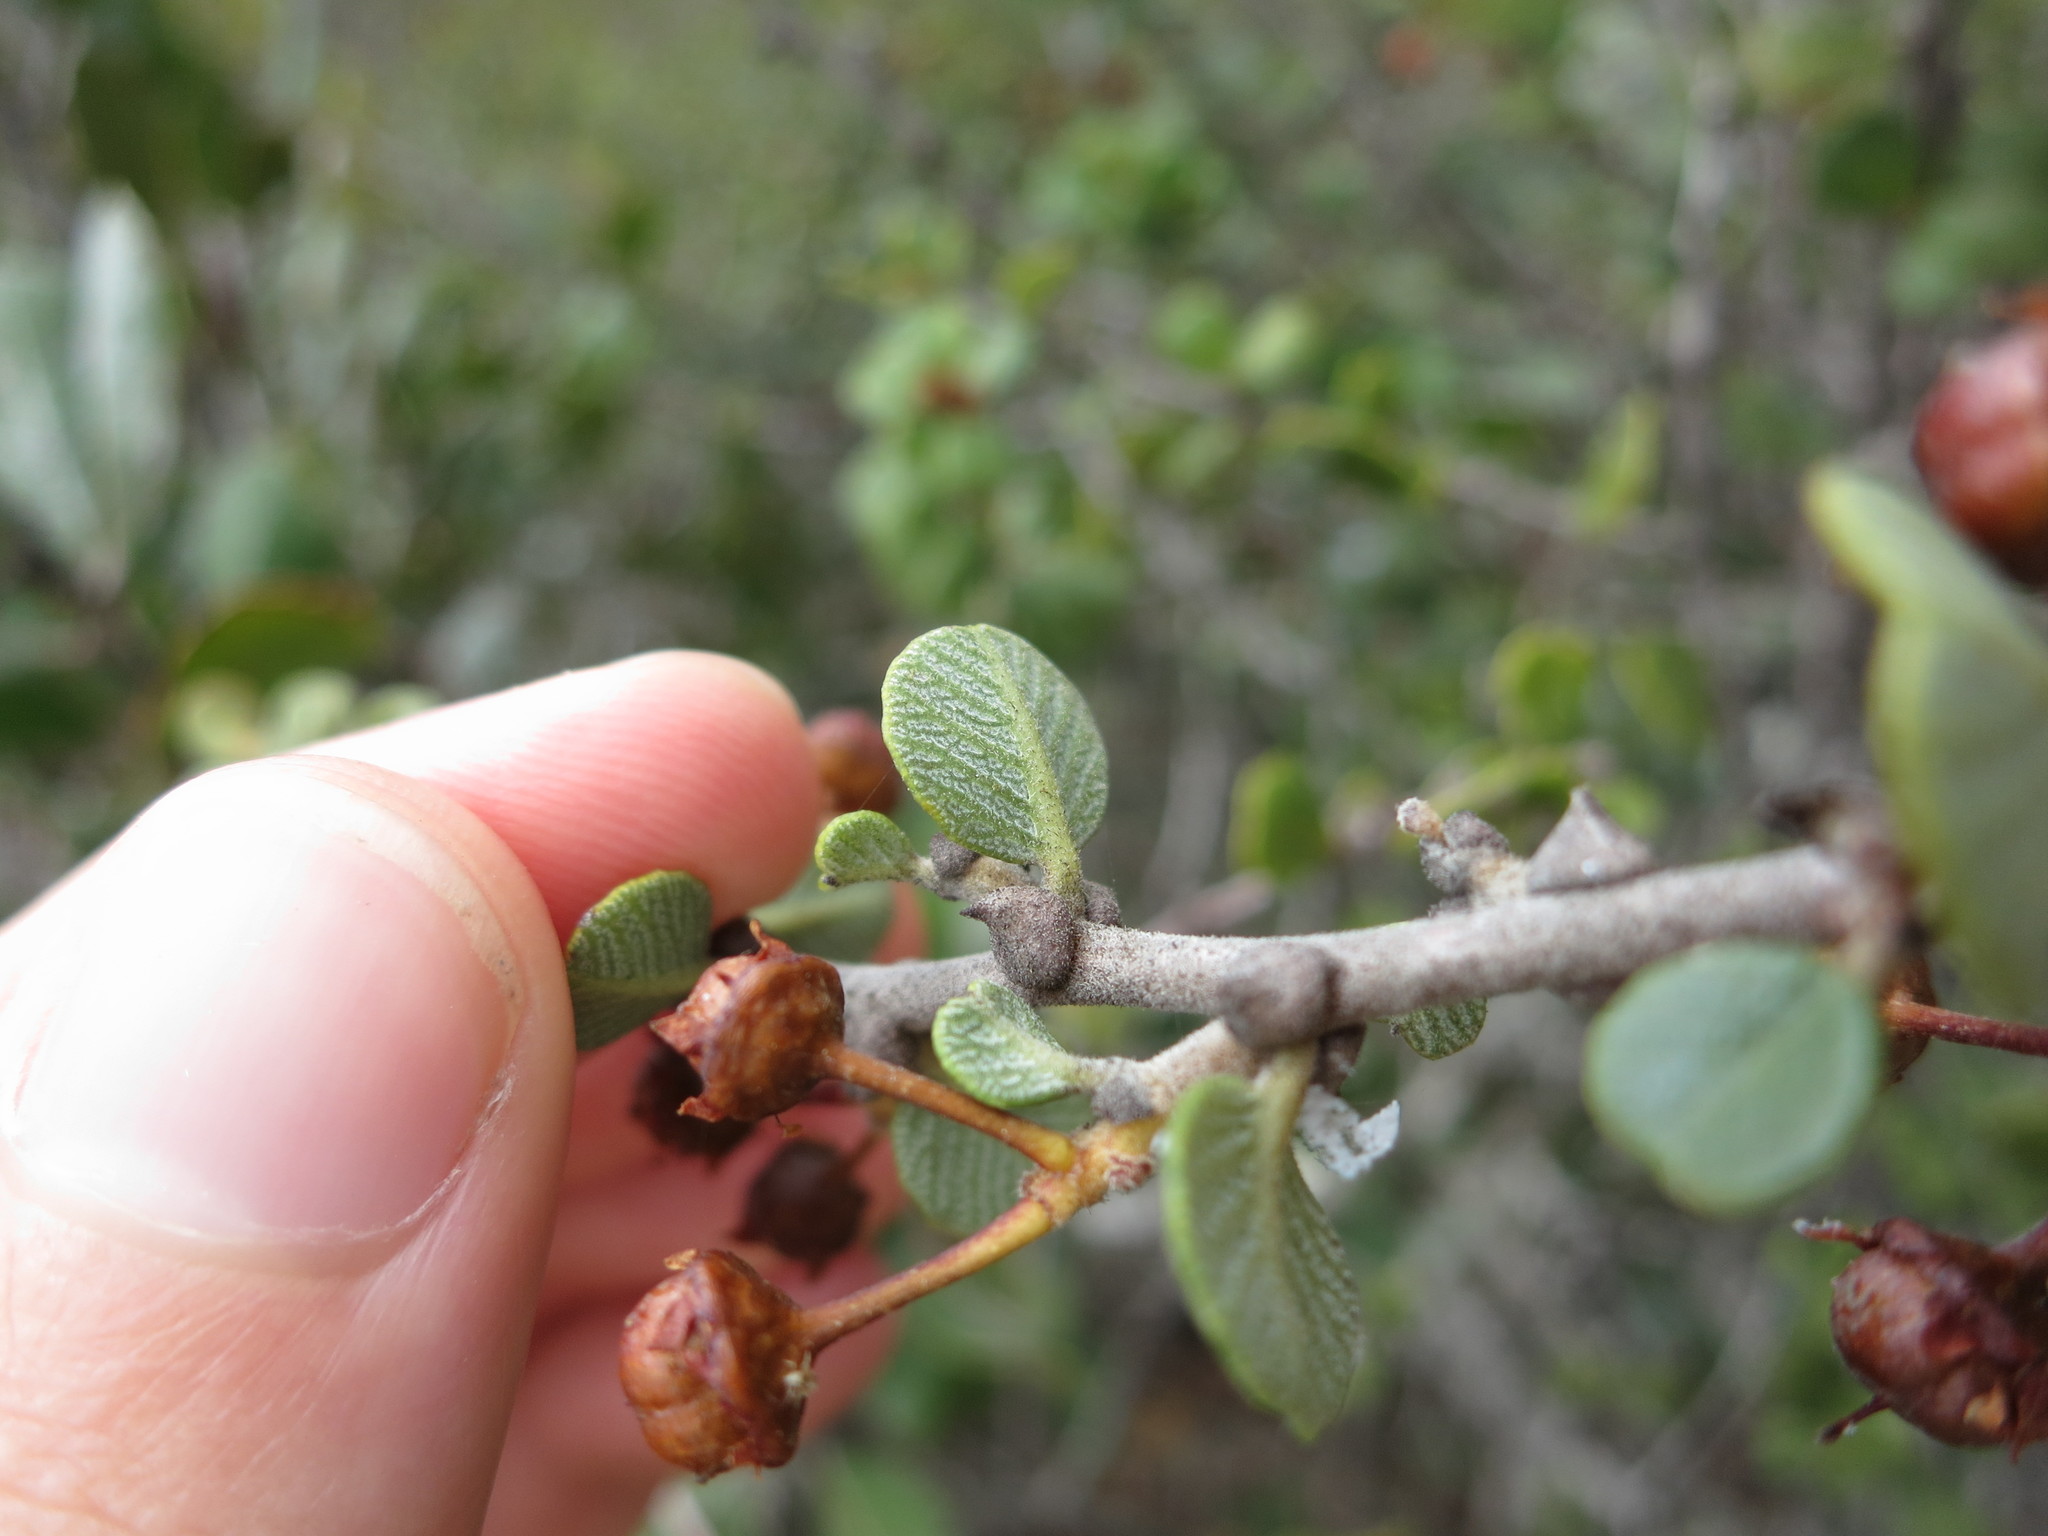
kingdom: Plantae
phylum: Tracheophyta
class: Magnoliopsida
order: Rosales
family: Rhamnaceae
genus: Ceanothus
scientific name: Ceanothus verrucosus
